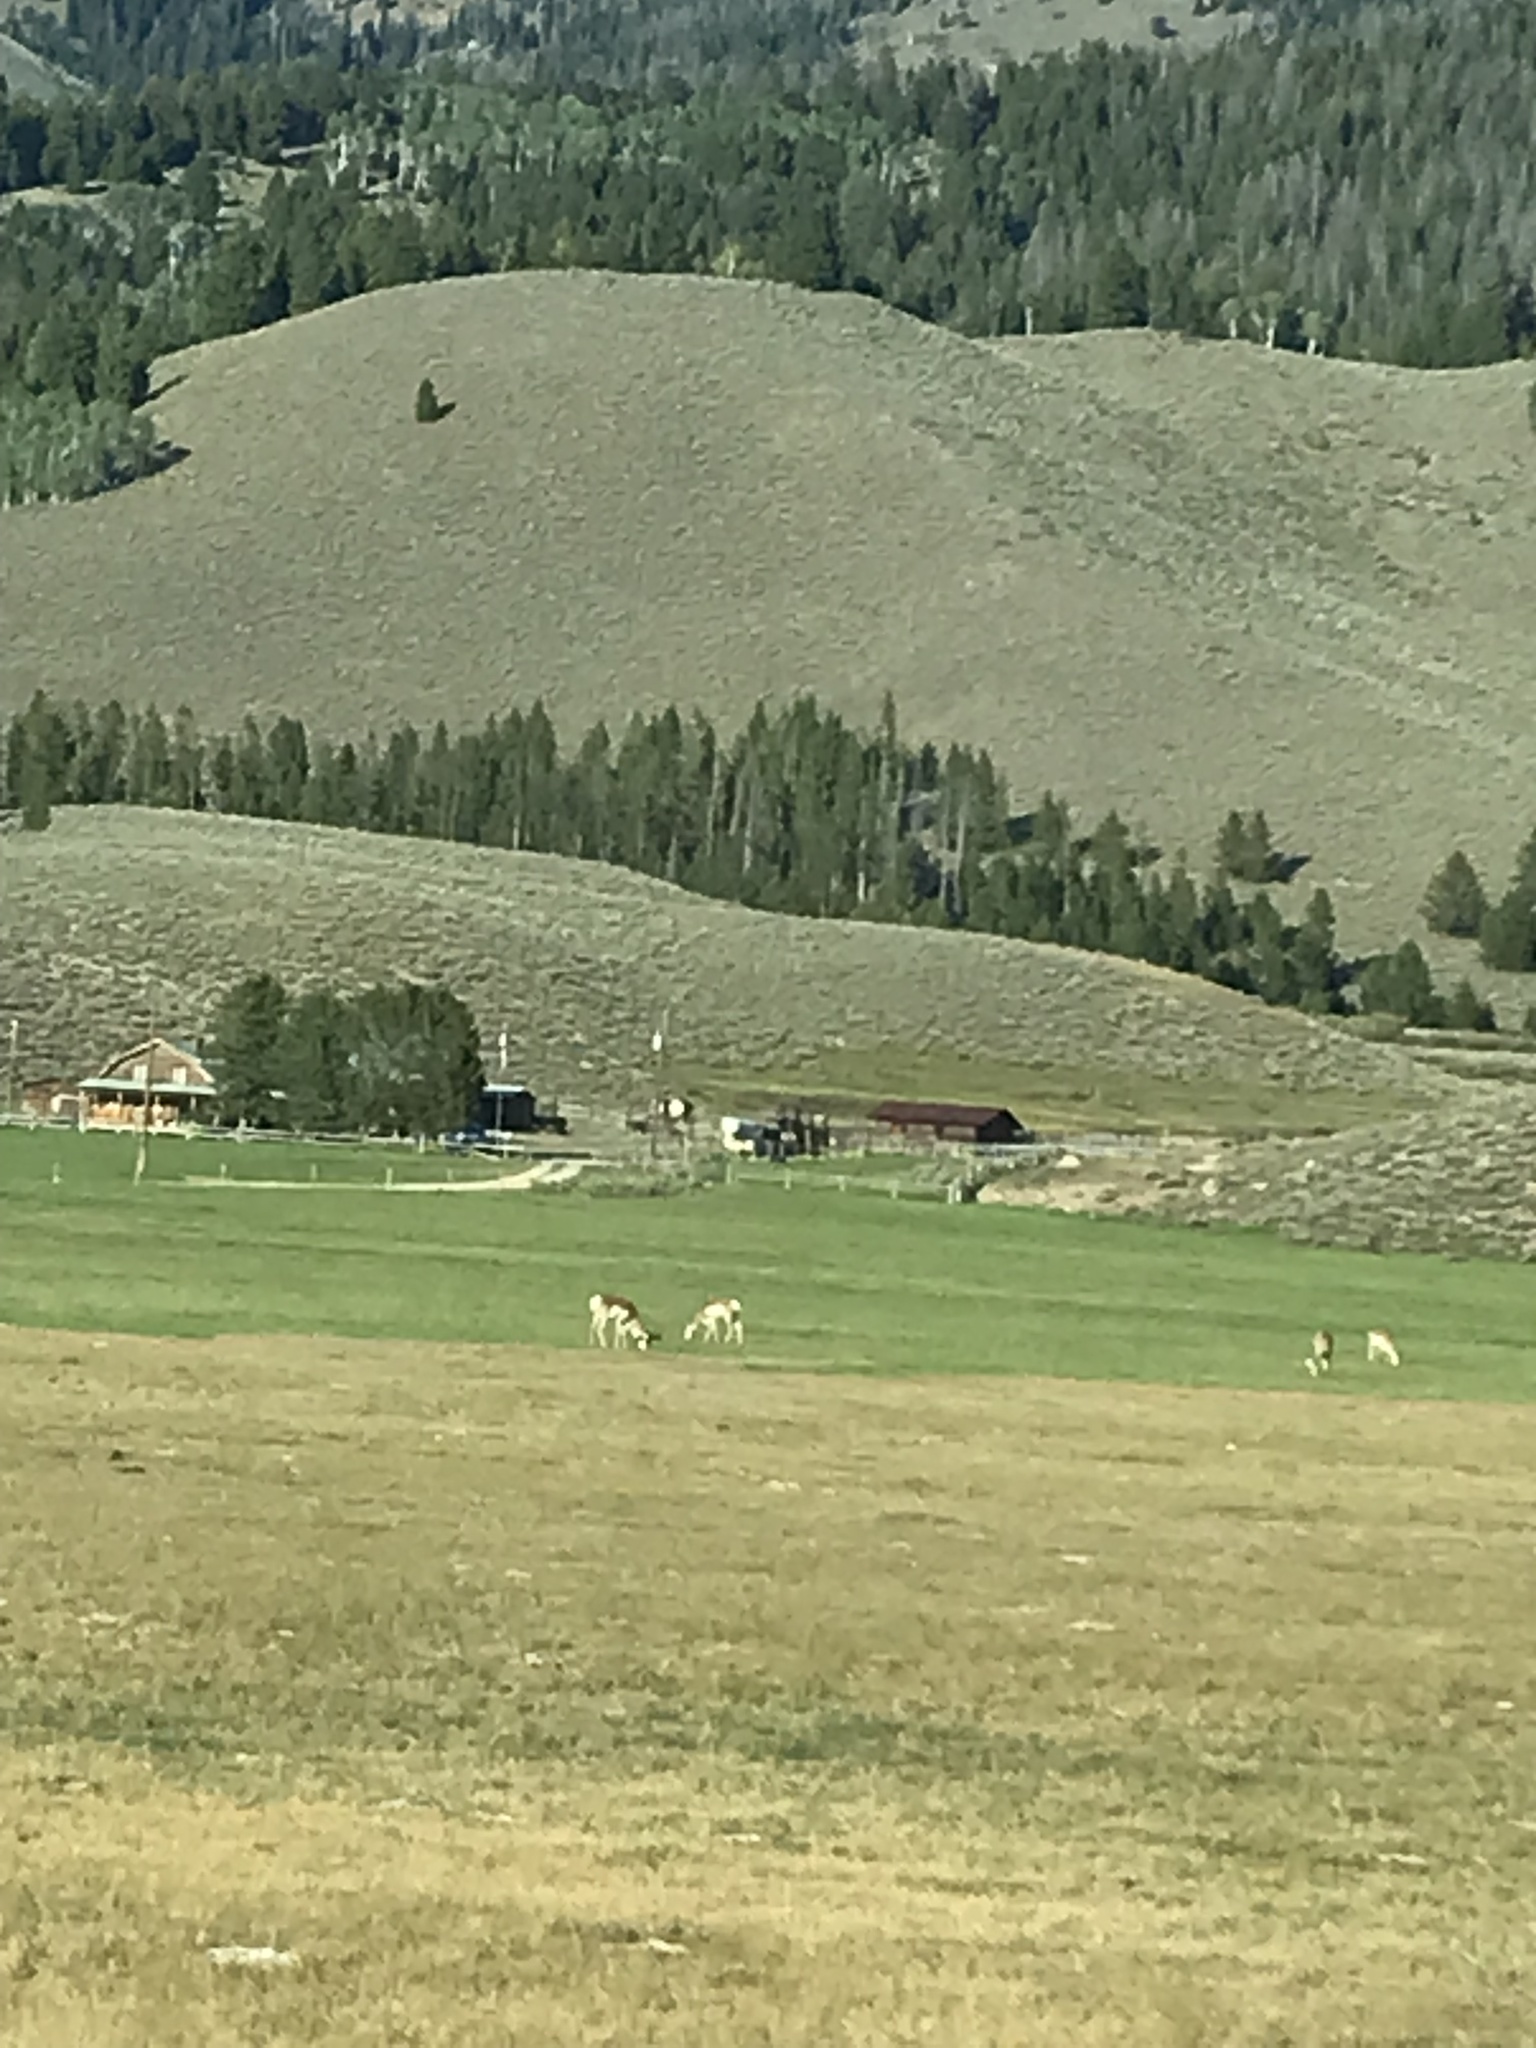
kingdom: Animalia
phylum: Chordata
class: Mammalia
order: Artiodactyla
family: Antilocapridae
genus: Antilocapra
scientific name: Antilocapra americana
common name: Pronghorn
